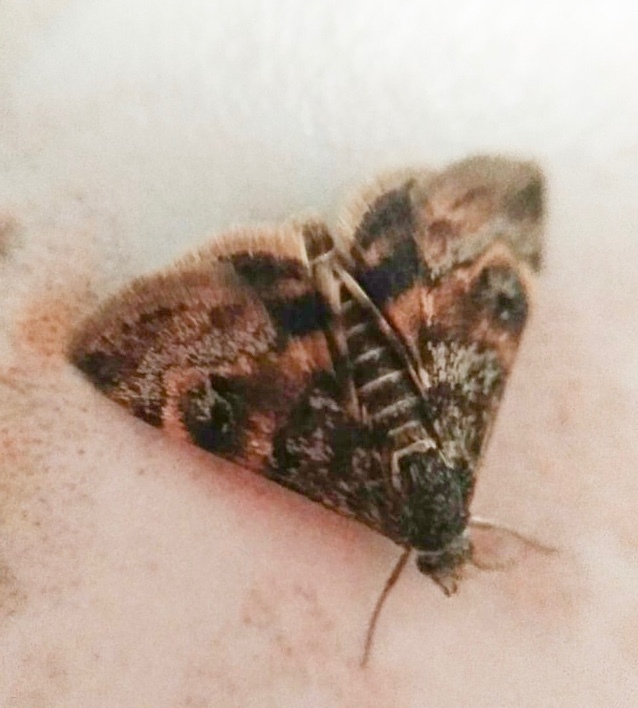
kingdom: Animalia
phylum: Arthropoda
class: Insecta
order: Lepidoptera
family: Crambidae
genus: Noctuelia
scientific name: Noctuelia Aporodes floralis
